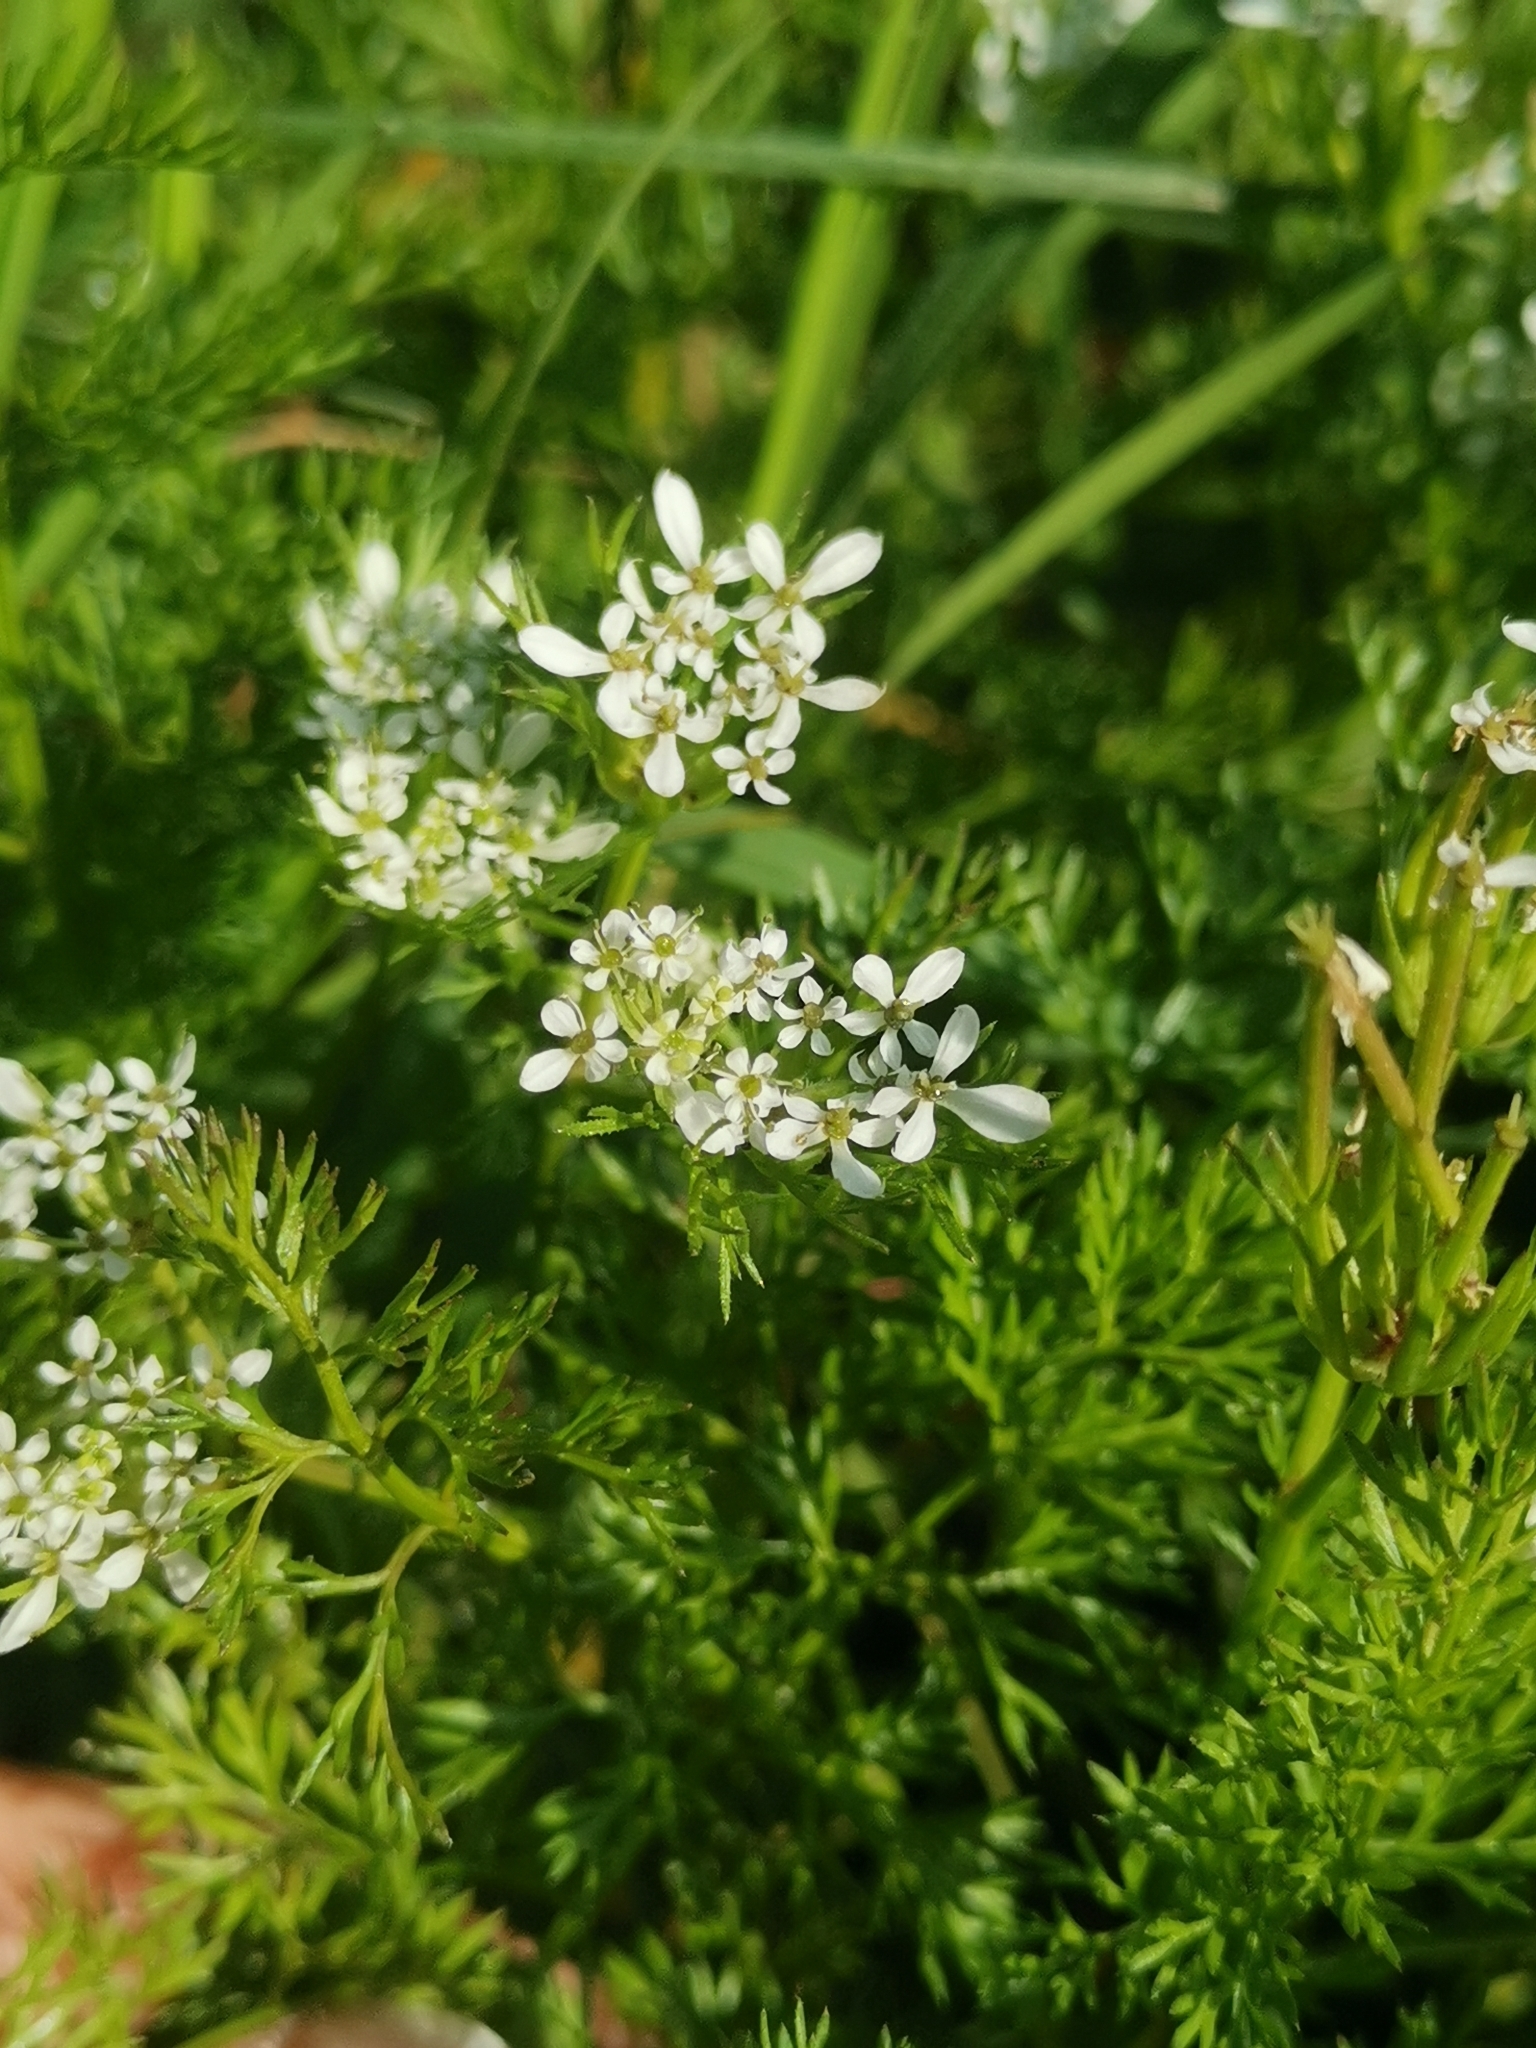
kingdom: Plantae
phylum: Tracheophyta
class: Magnoliopsida
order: Apiales
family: Apiaceae
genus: Scandix
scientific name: Scandix pecten-veneris
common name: Shepherd's-needle
